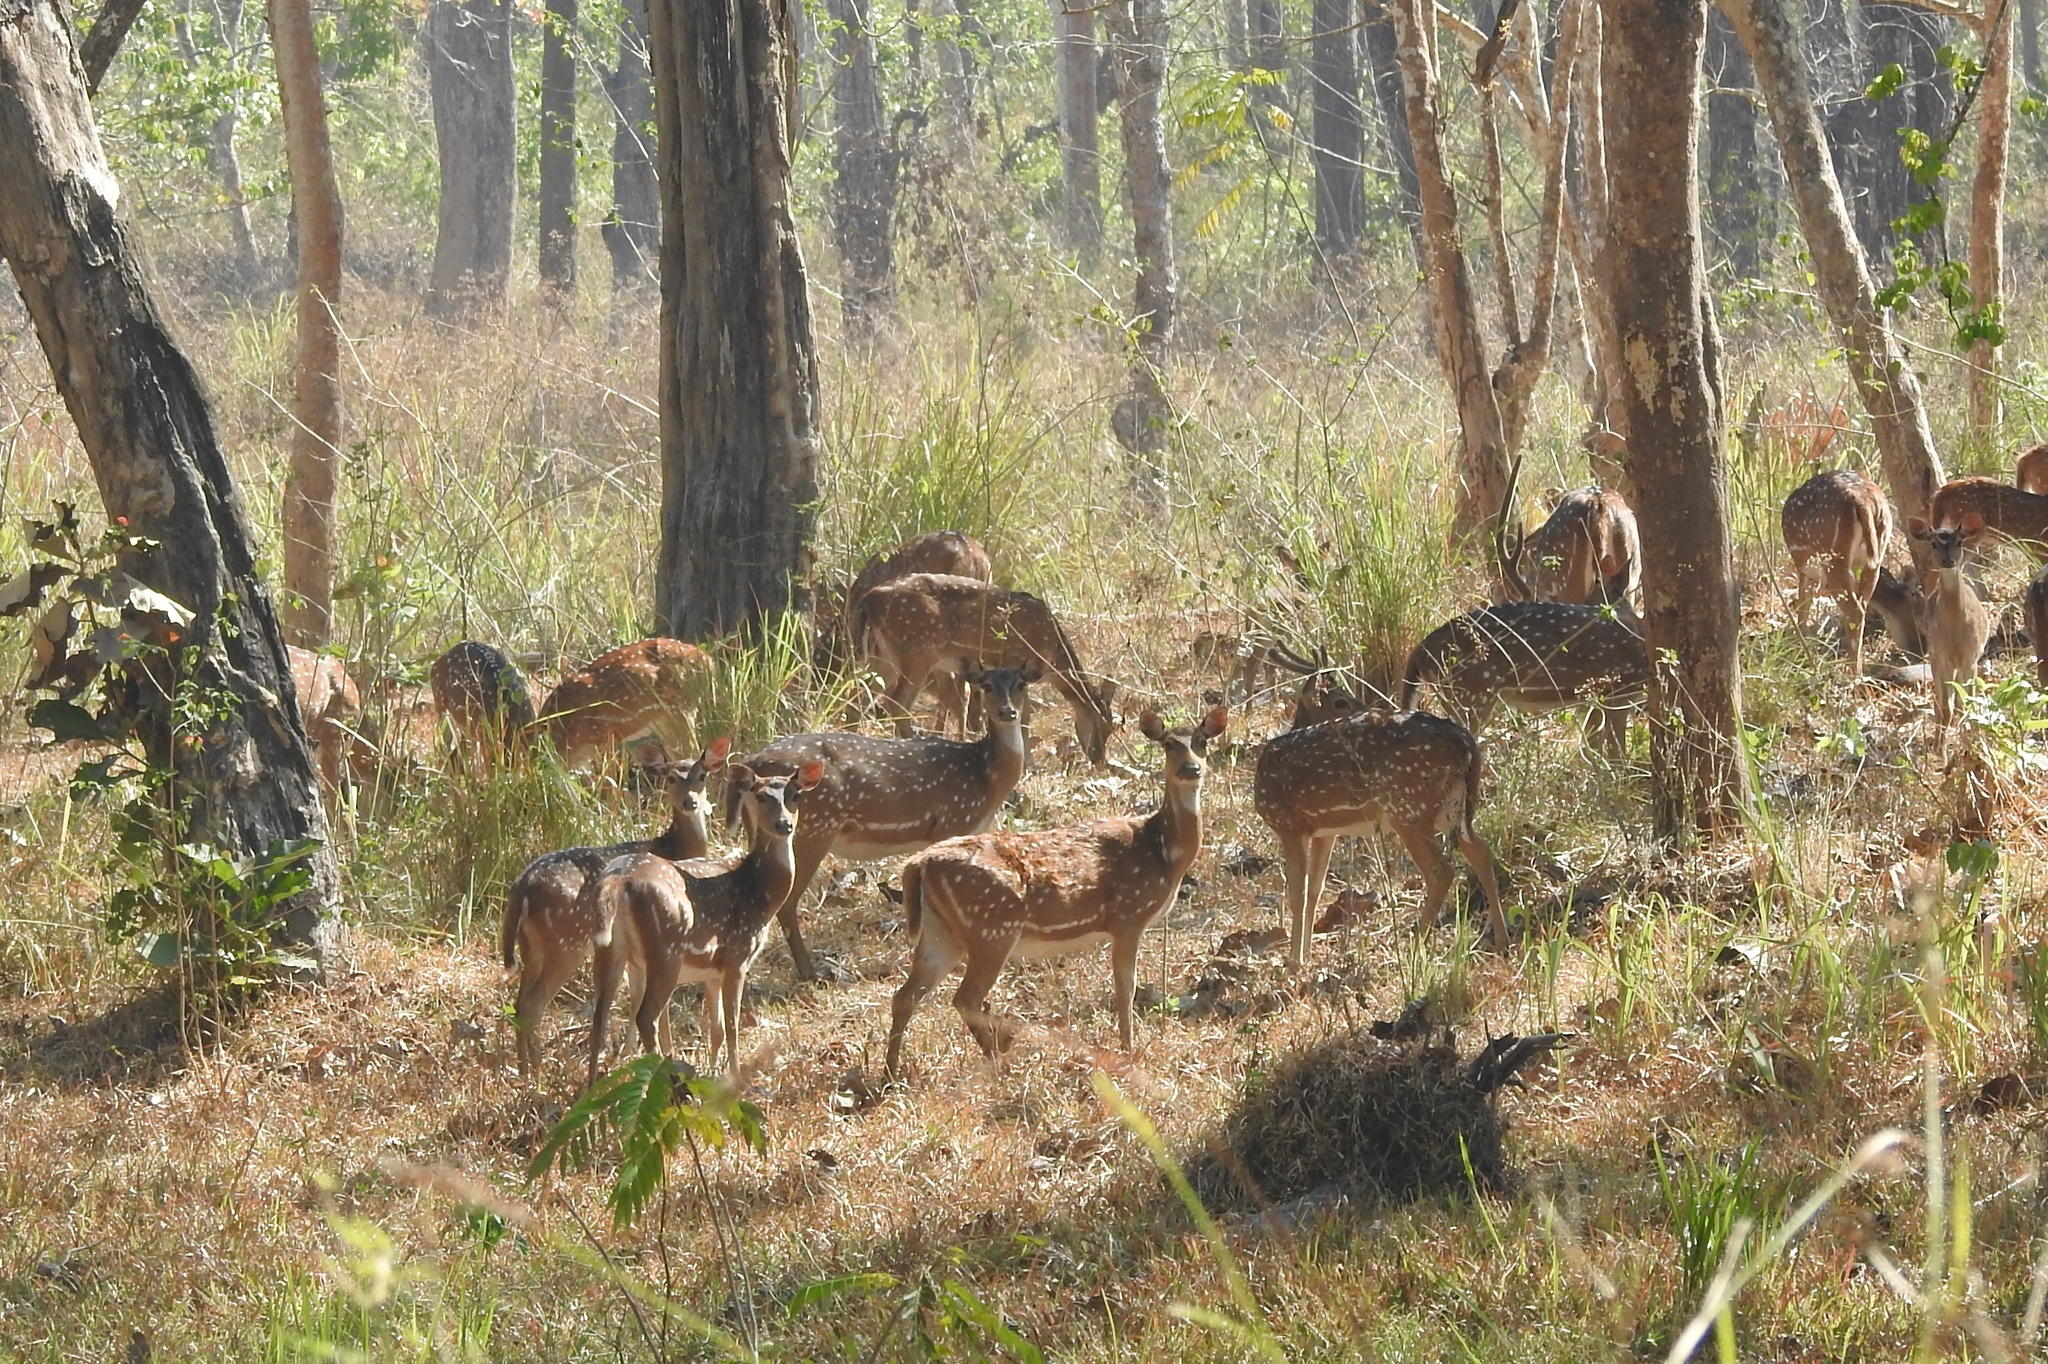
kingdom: Animalia
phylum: Chordata
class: Mammalia
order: Artiodactyla
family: Cervidae
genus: Axis
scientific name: Axis axis
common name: Chital
